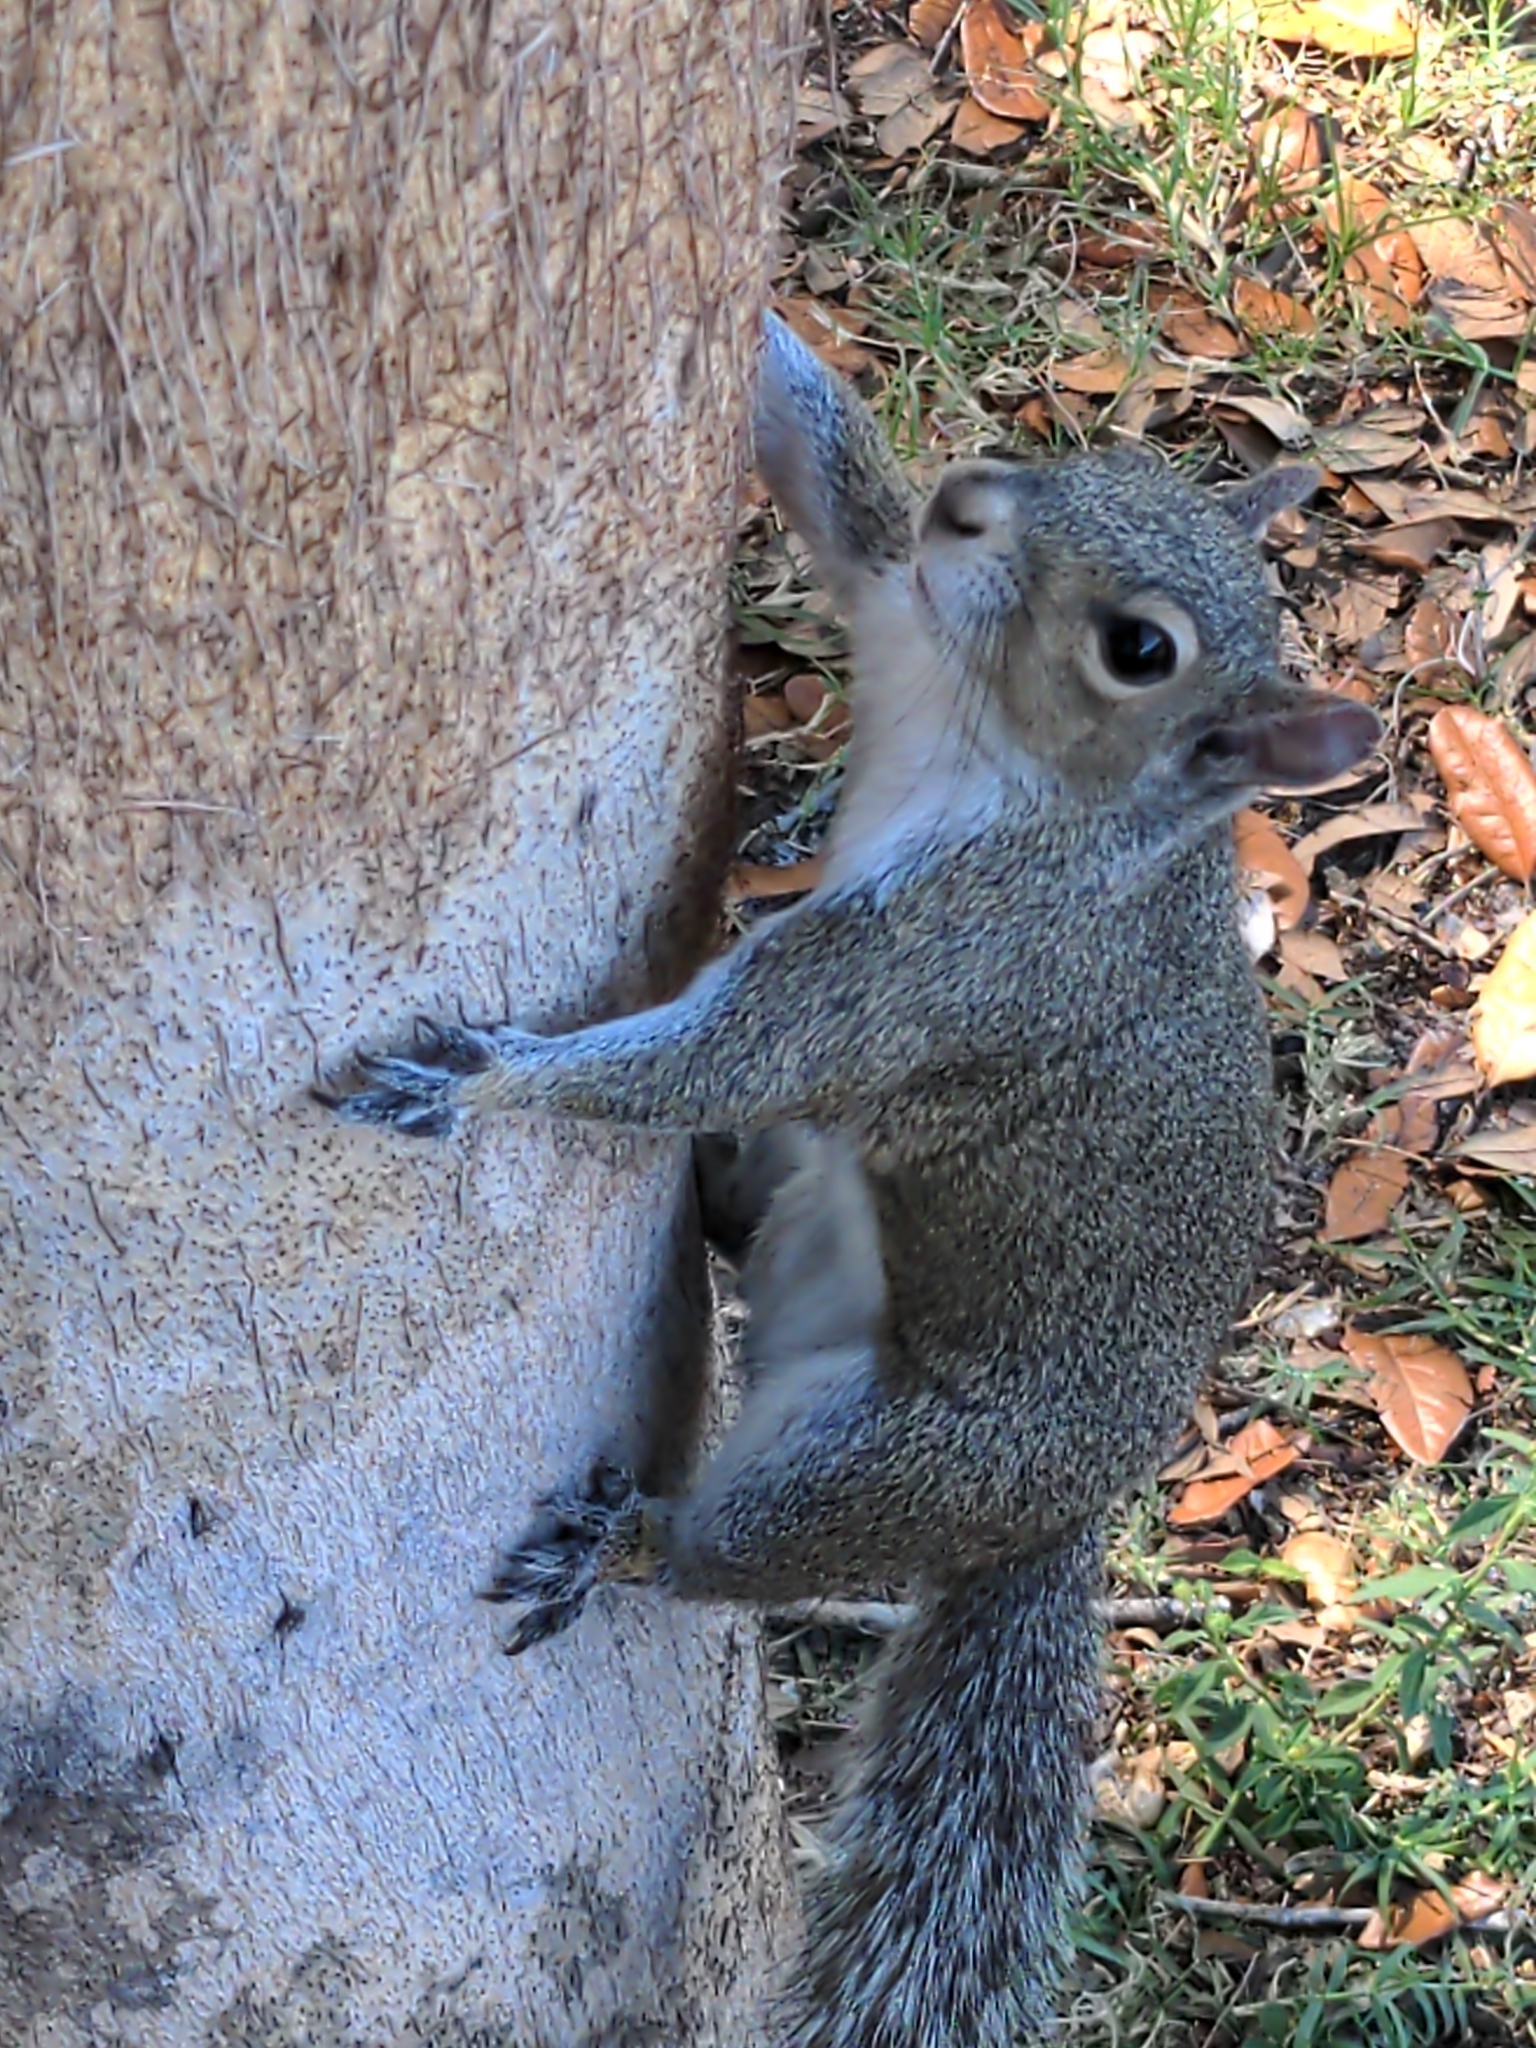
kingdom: Animalia
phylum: Chordata
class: Mammalia
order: Rodentia
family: Sciuridae
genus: Sciurus
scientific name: Sciurus carolinensis
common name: Eastern gray squirrel
